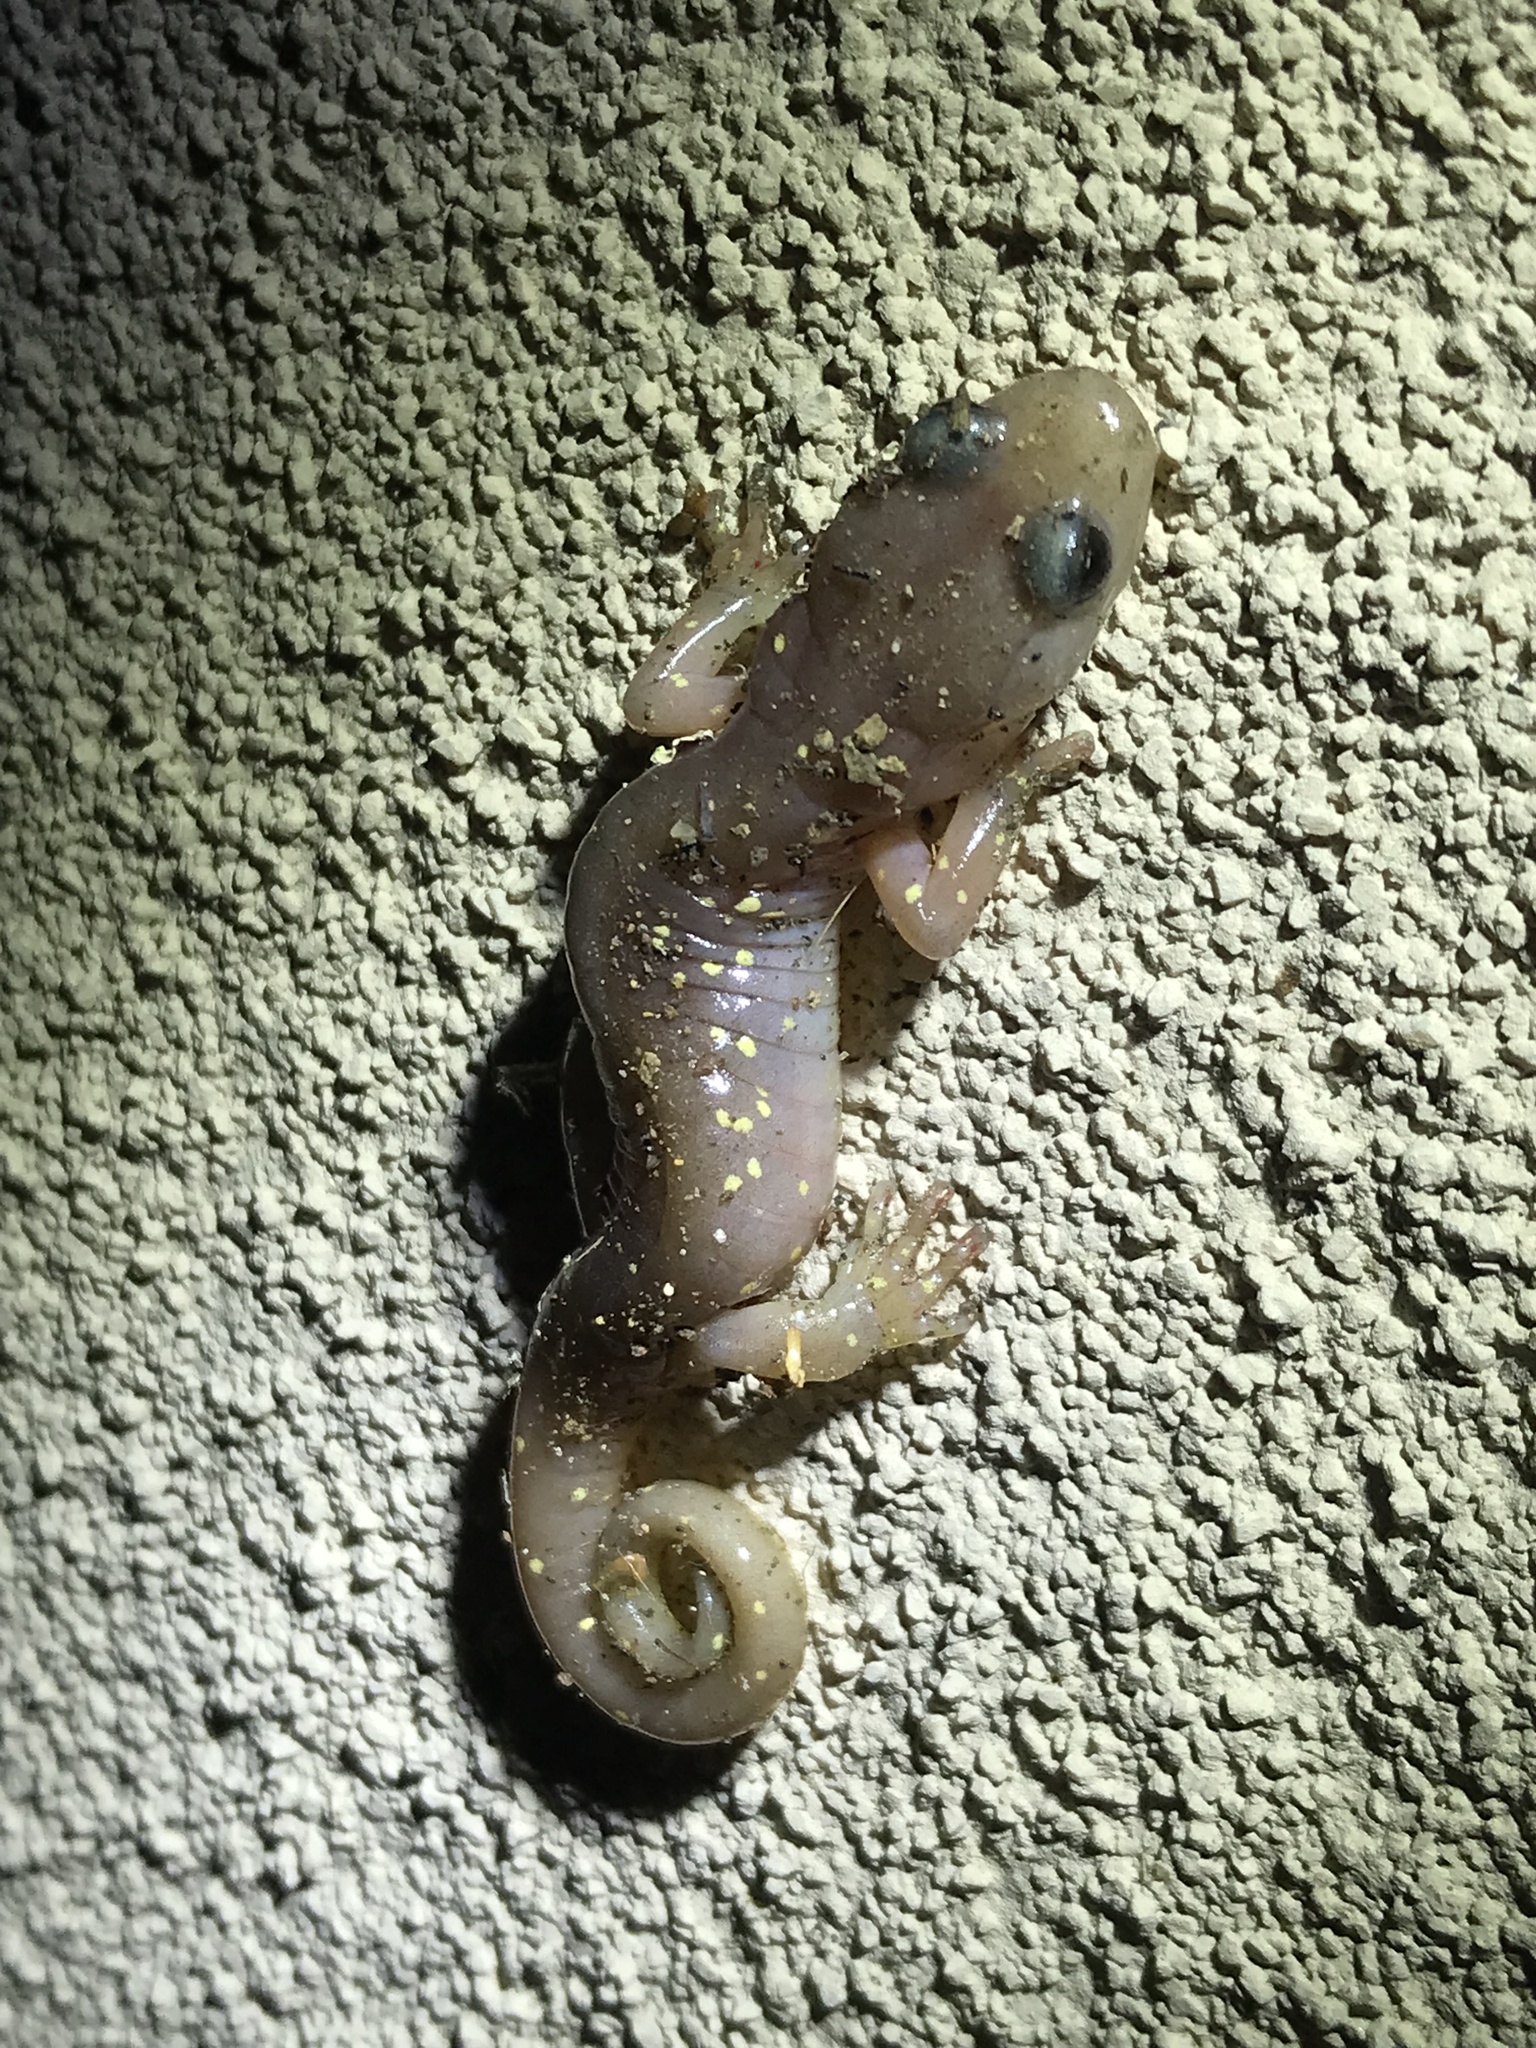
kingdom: Animalia
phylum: Chordata
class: Amphibia
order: Caudata
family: Plethodontidae
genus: Aneides
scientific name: Aneides lugubris
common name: Arboreal salamander
